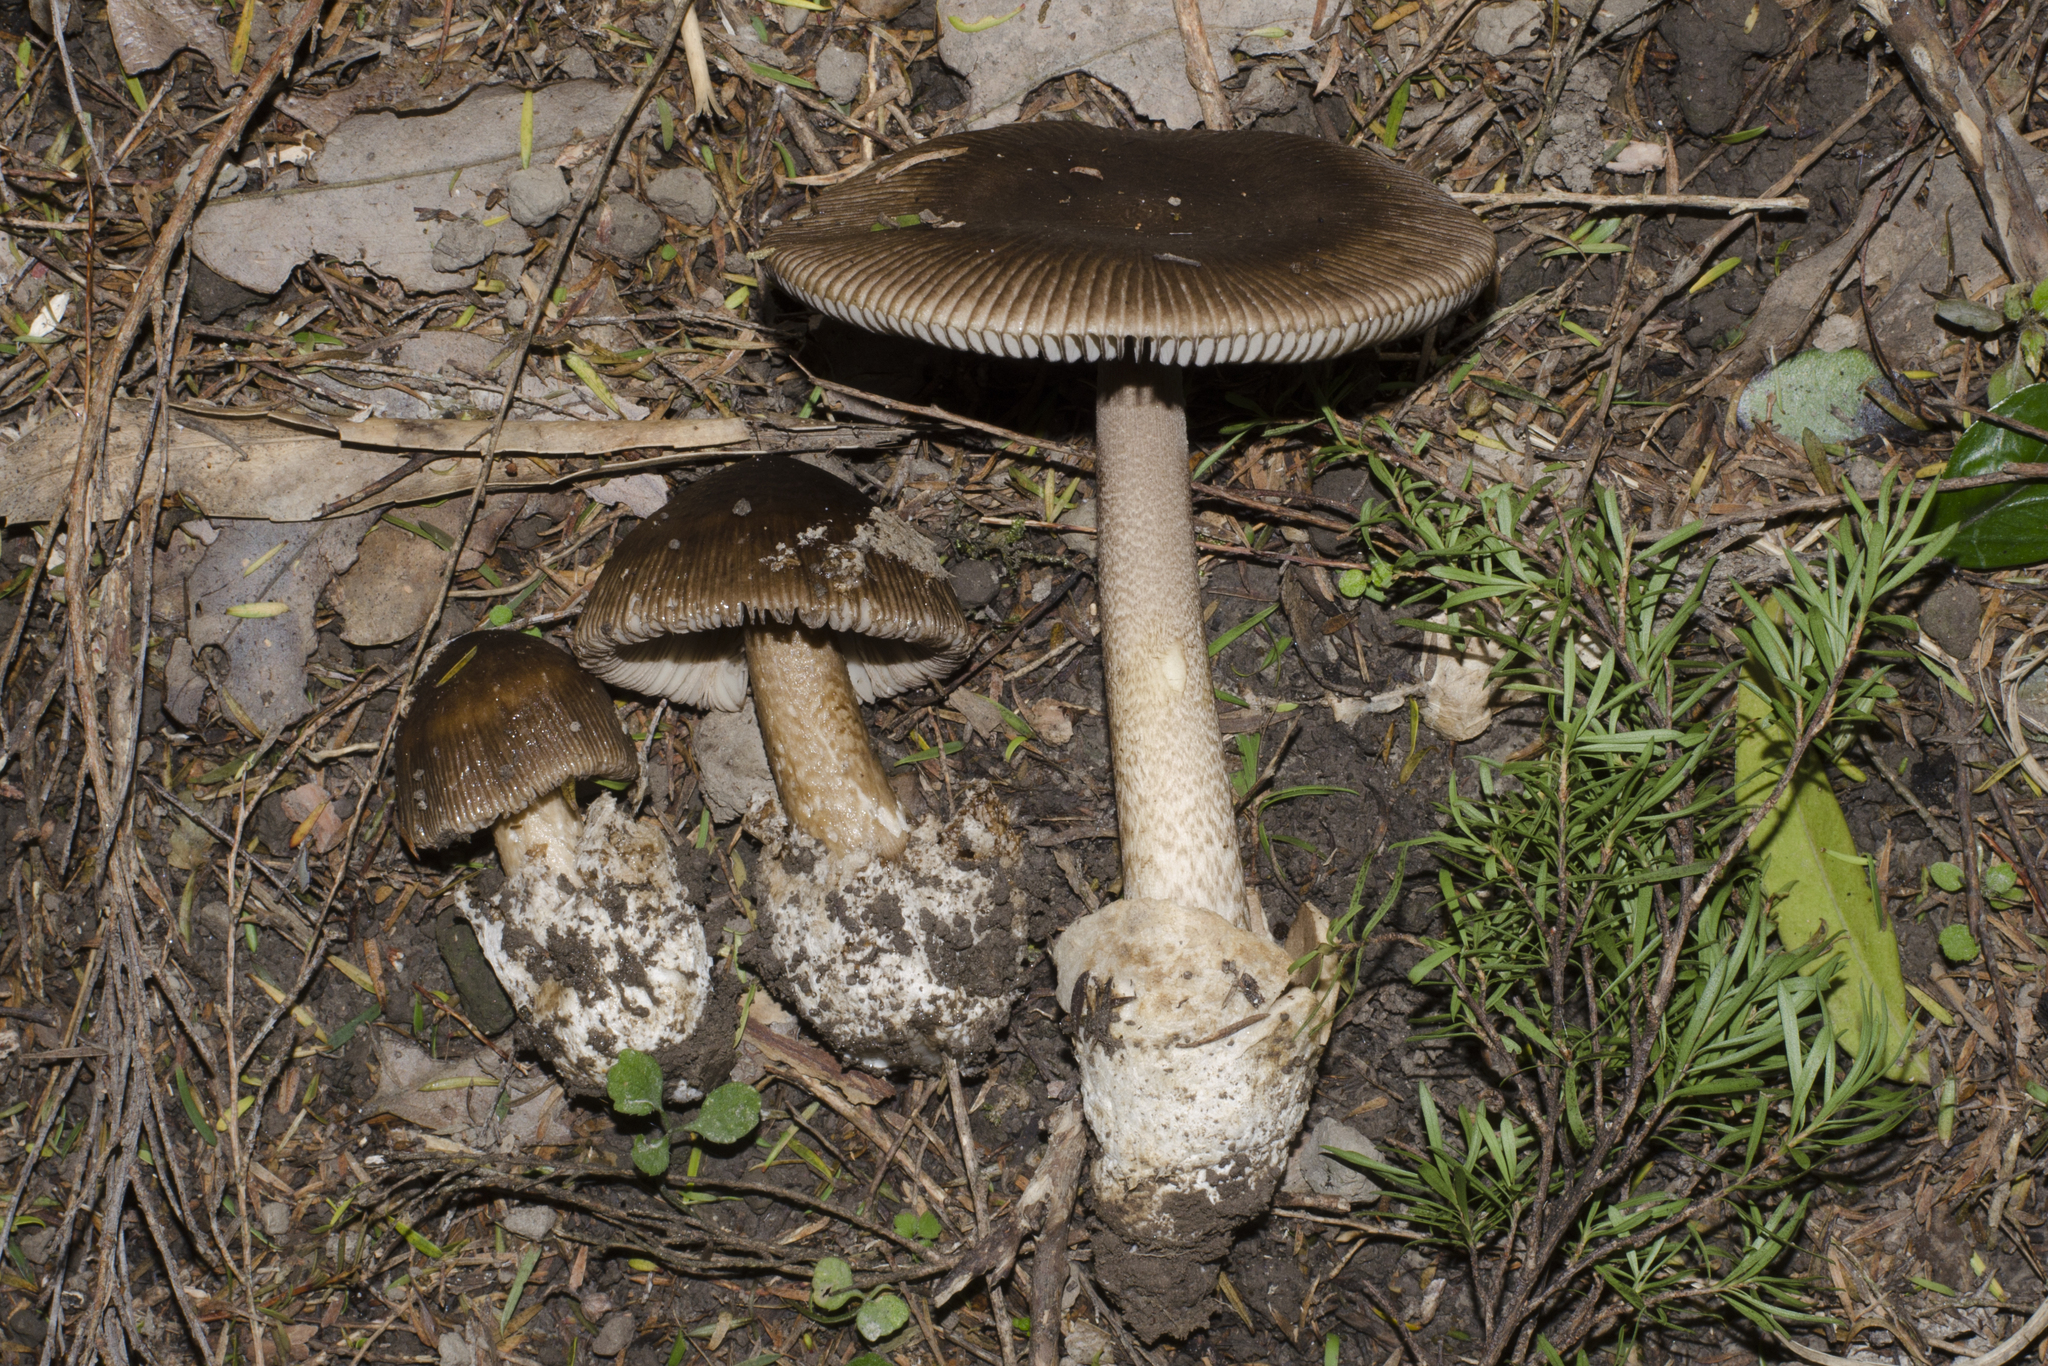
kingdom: Fungi
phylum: Basidiomycota
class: Agaricomycetes
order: Agaricales
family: Amanitaceae
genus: Amanita
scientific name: Amanita pekeoides
